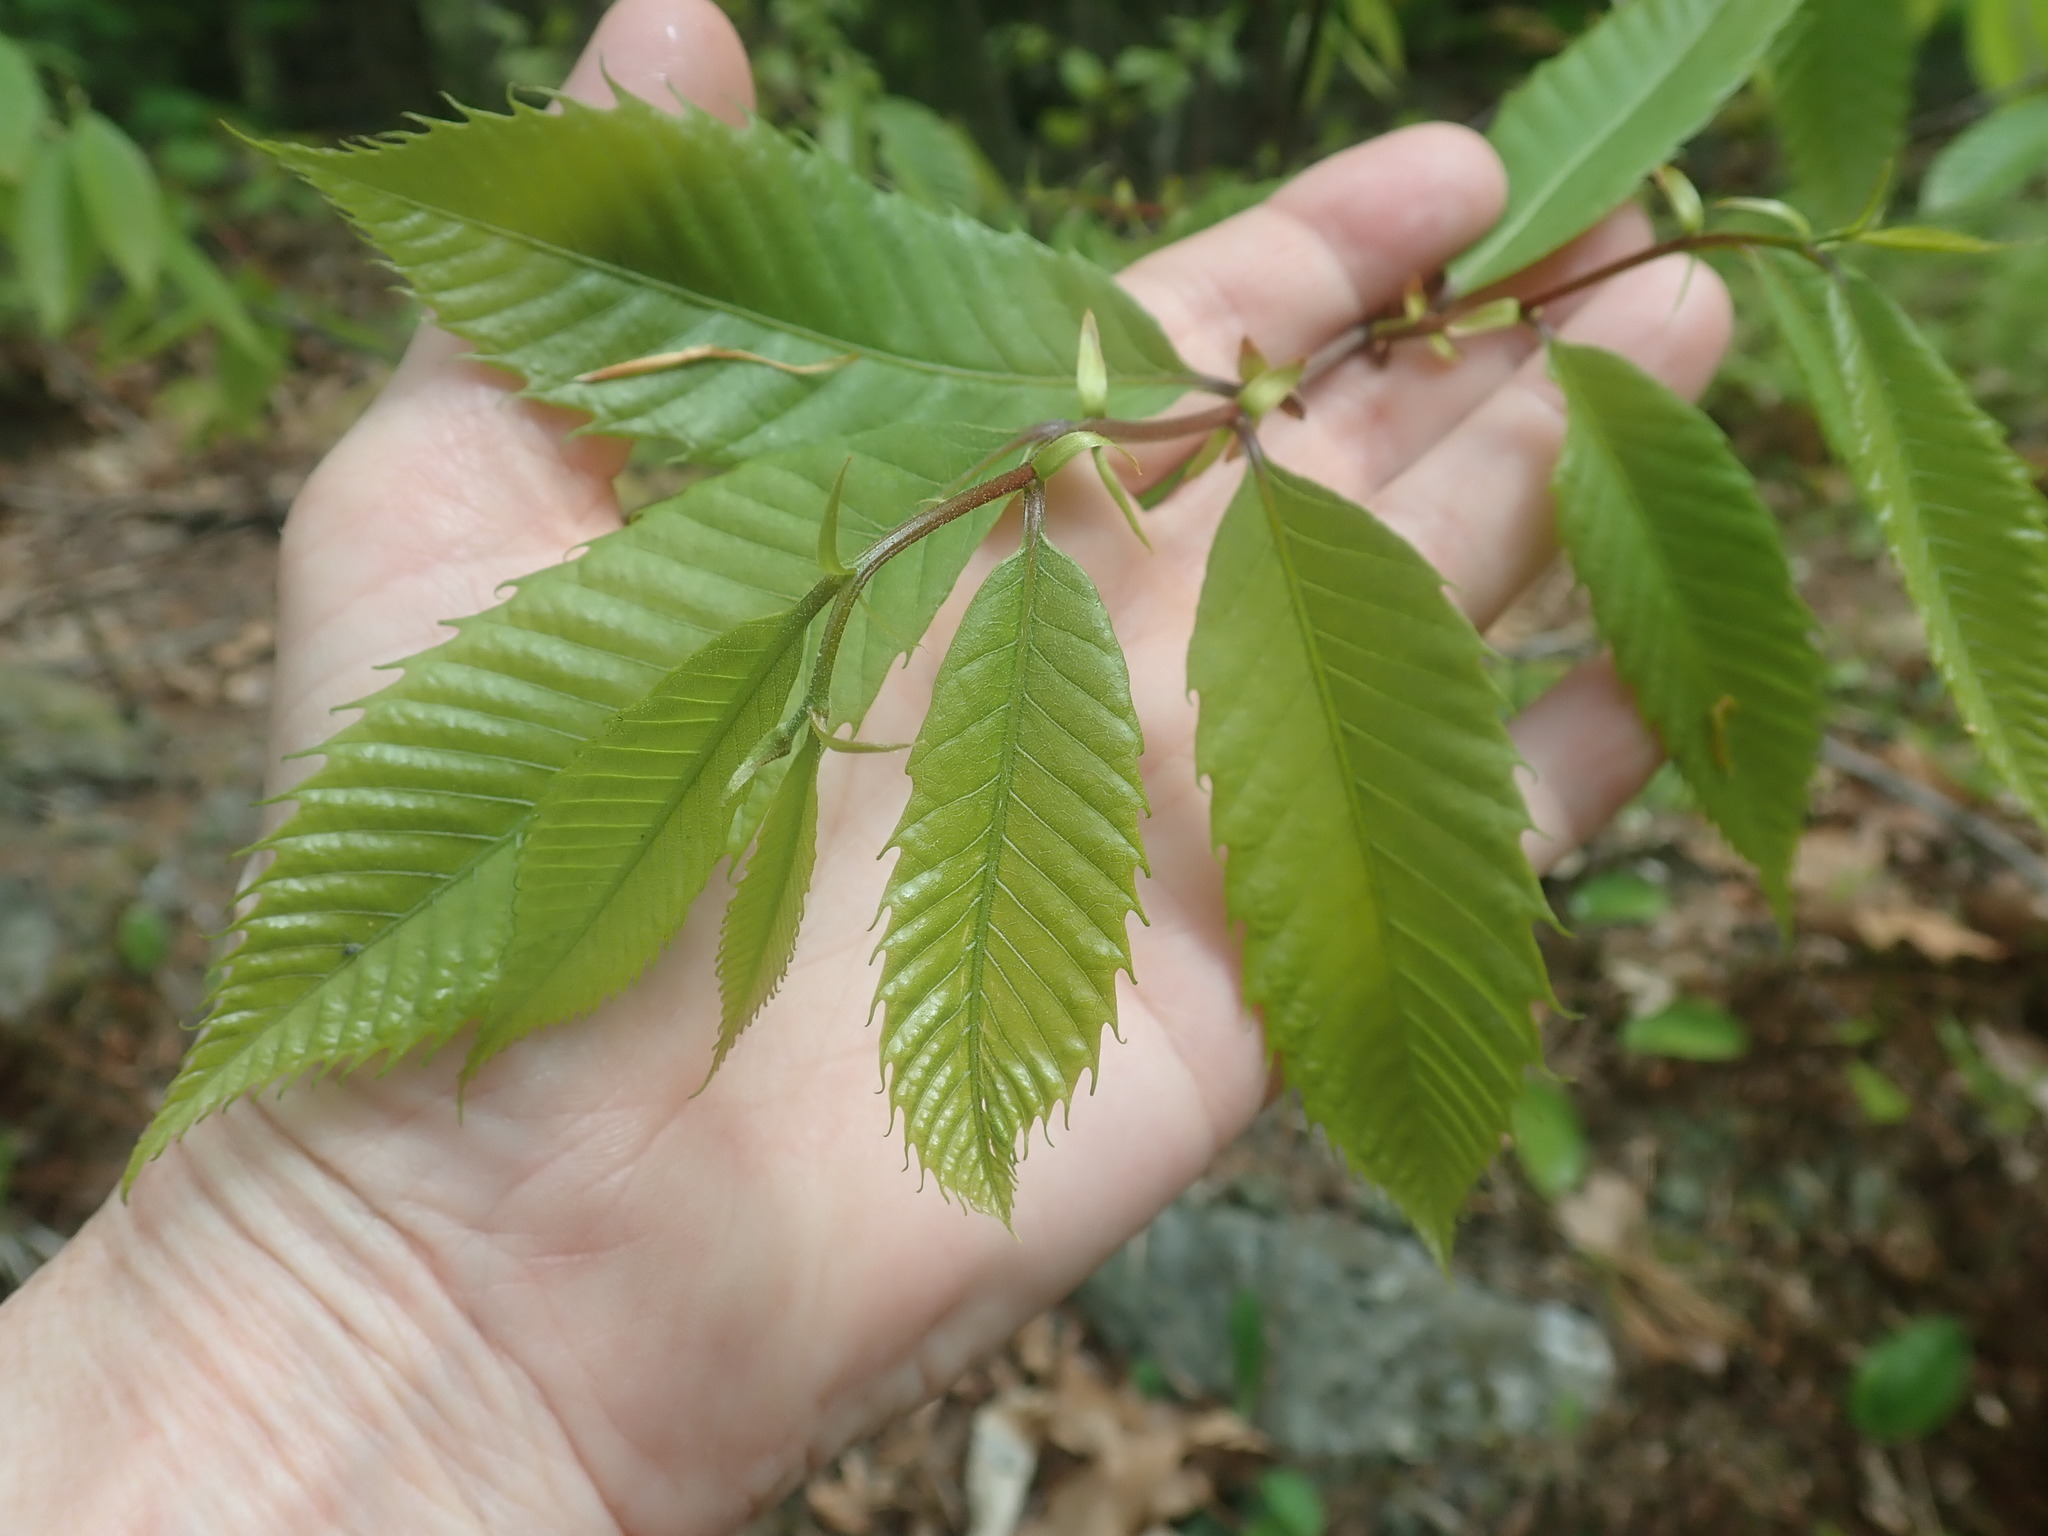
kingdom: Plantae
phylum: Tracheophyta
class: Magnoliopsida
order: Fagales
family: Fagaceae
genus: Castanea
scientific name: Castanea dentata
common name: American chestnut
